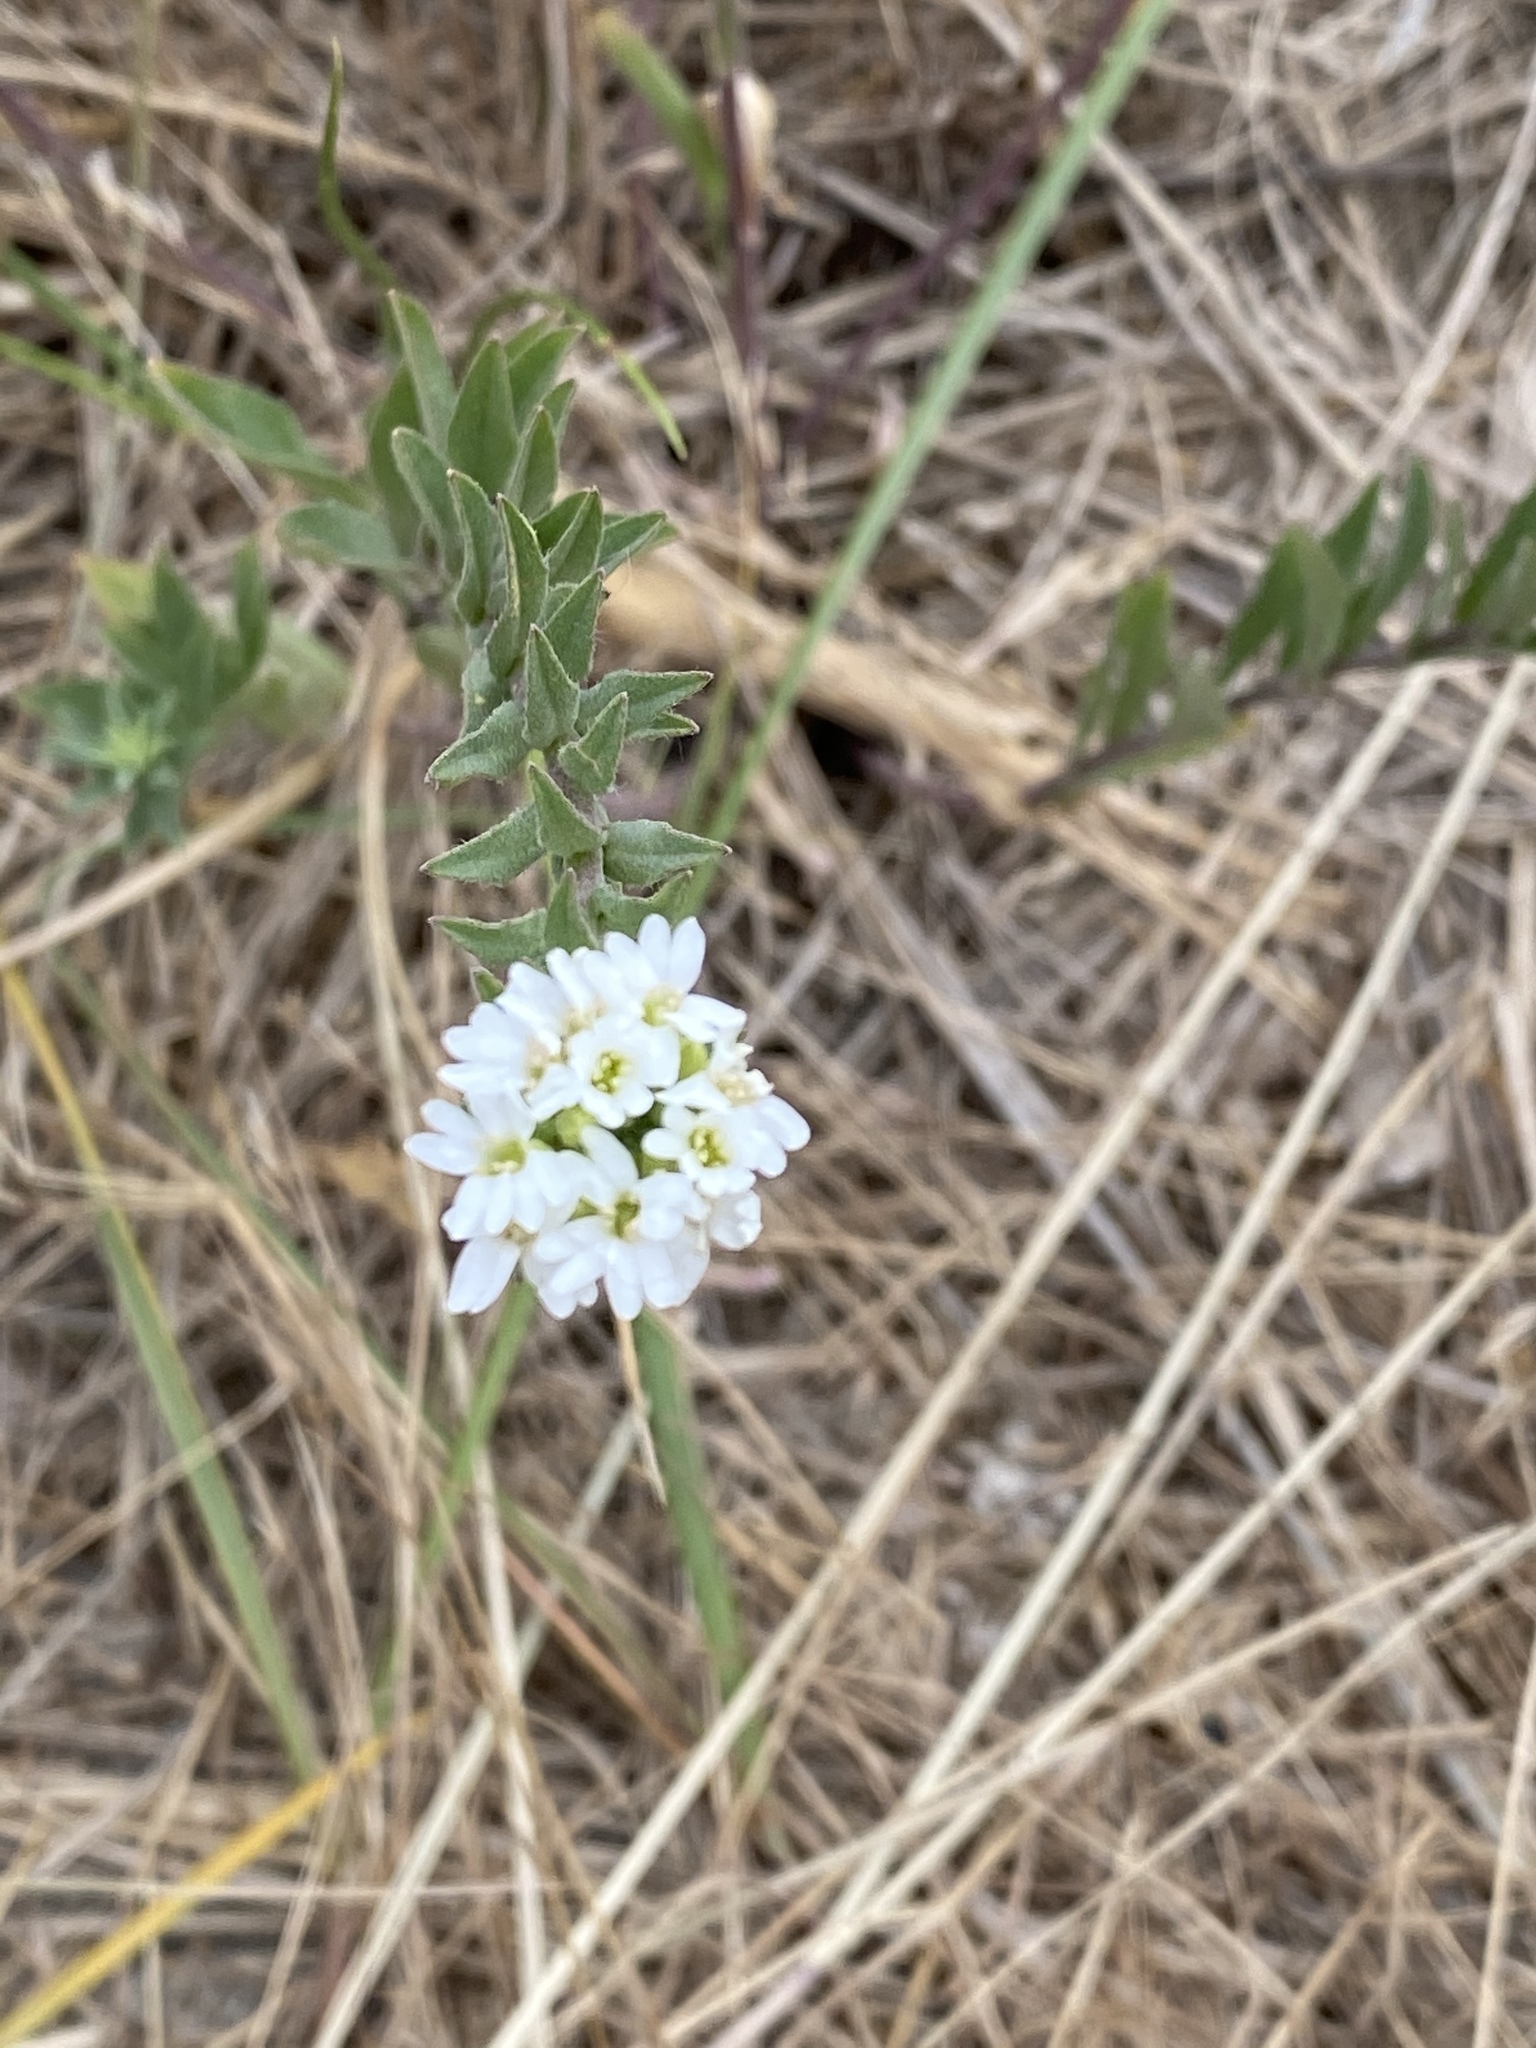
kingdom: Plantae
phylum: Tracheophyta
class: Magnoliopsida
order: Brassicales
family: Brassicaceae
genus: Berteroa
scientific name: Berteroa incana
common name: Hoary alison
